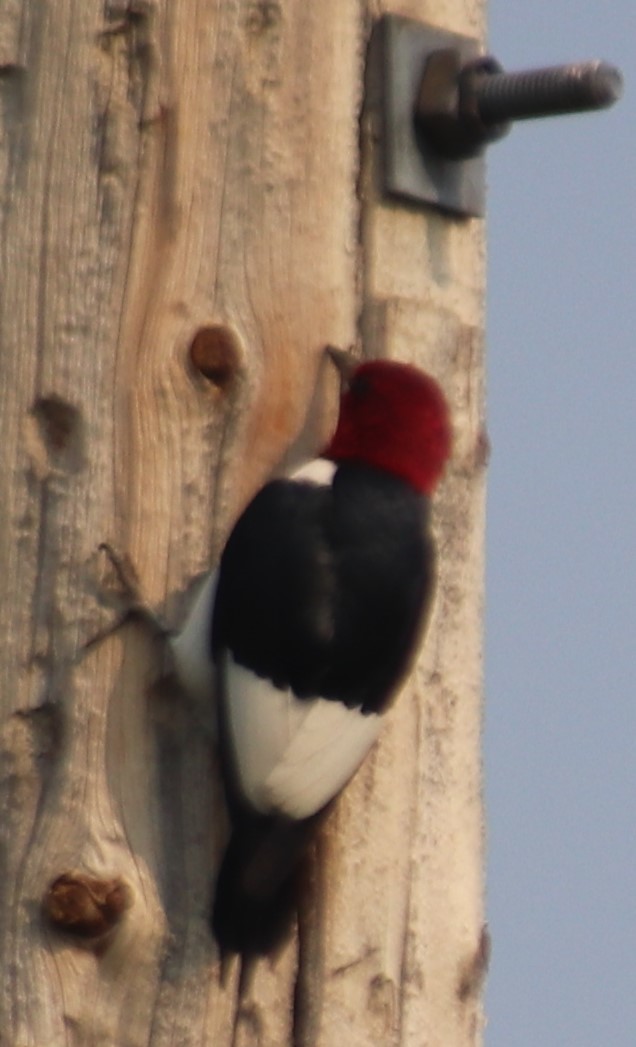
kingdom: Animalia
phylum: Chordata
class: Aves
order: Piciformes
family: Picidae
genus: Melanerpes
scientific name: Melanerpes erythrocephalus
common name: Red-headed woodpecker
